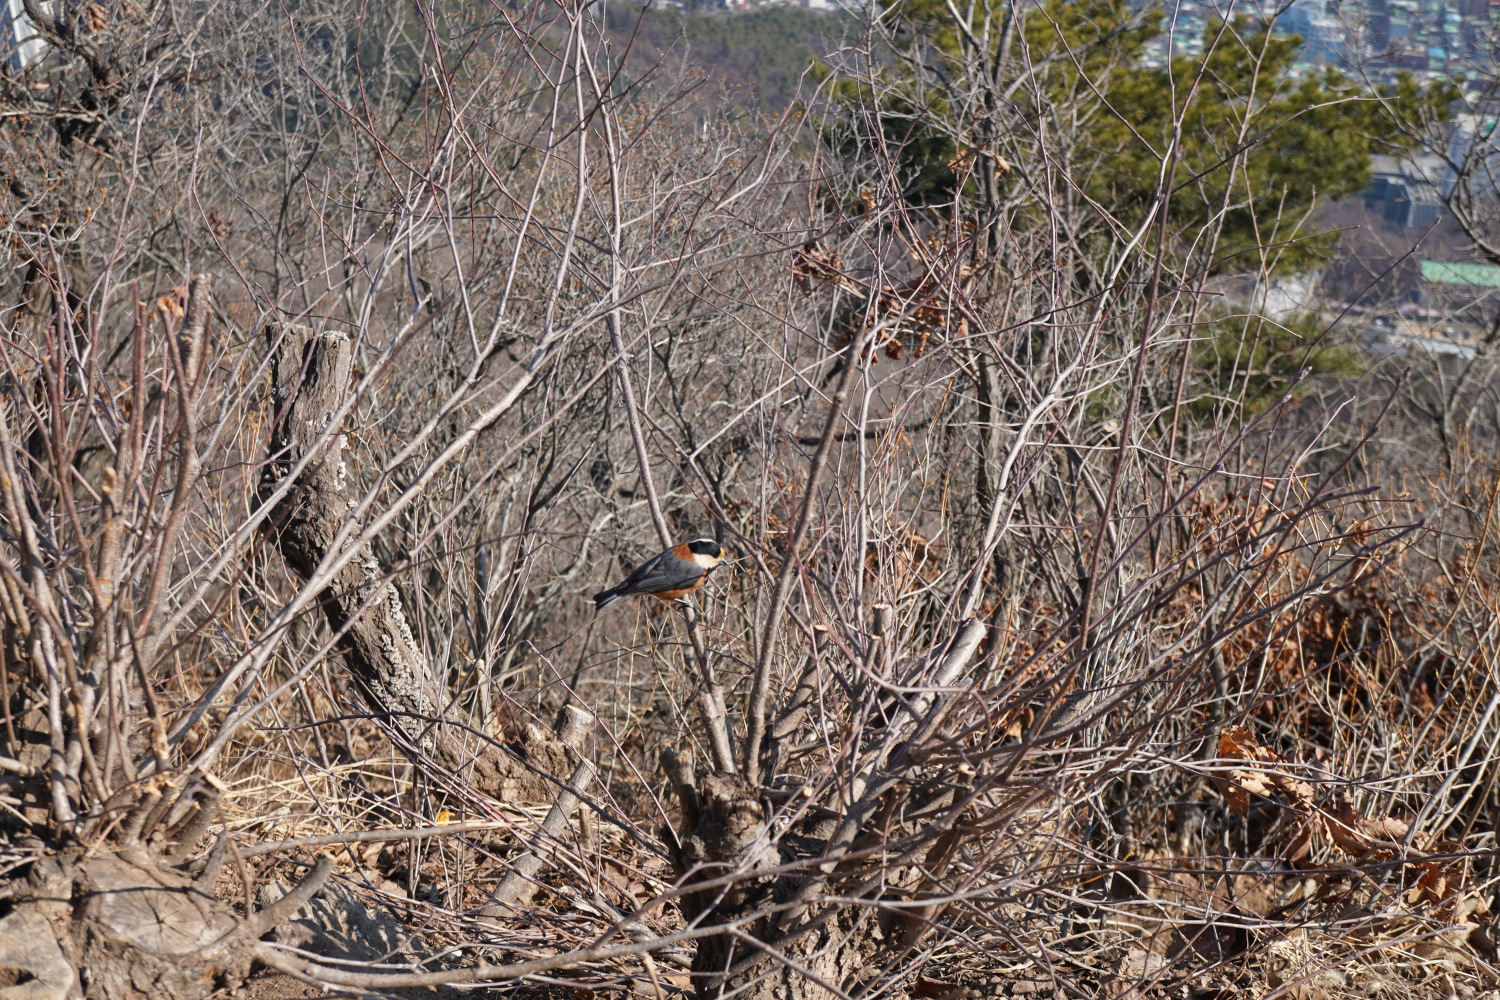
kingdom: Animalia
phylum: Chordata
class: Aves
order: Passeriformes
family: Paridae
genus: Poecile
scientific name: Poecile varius
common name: Varied tit
